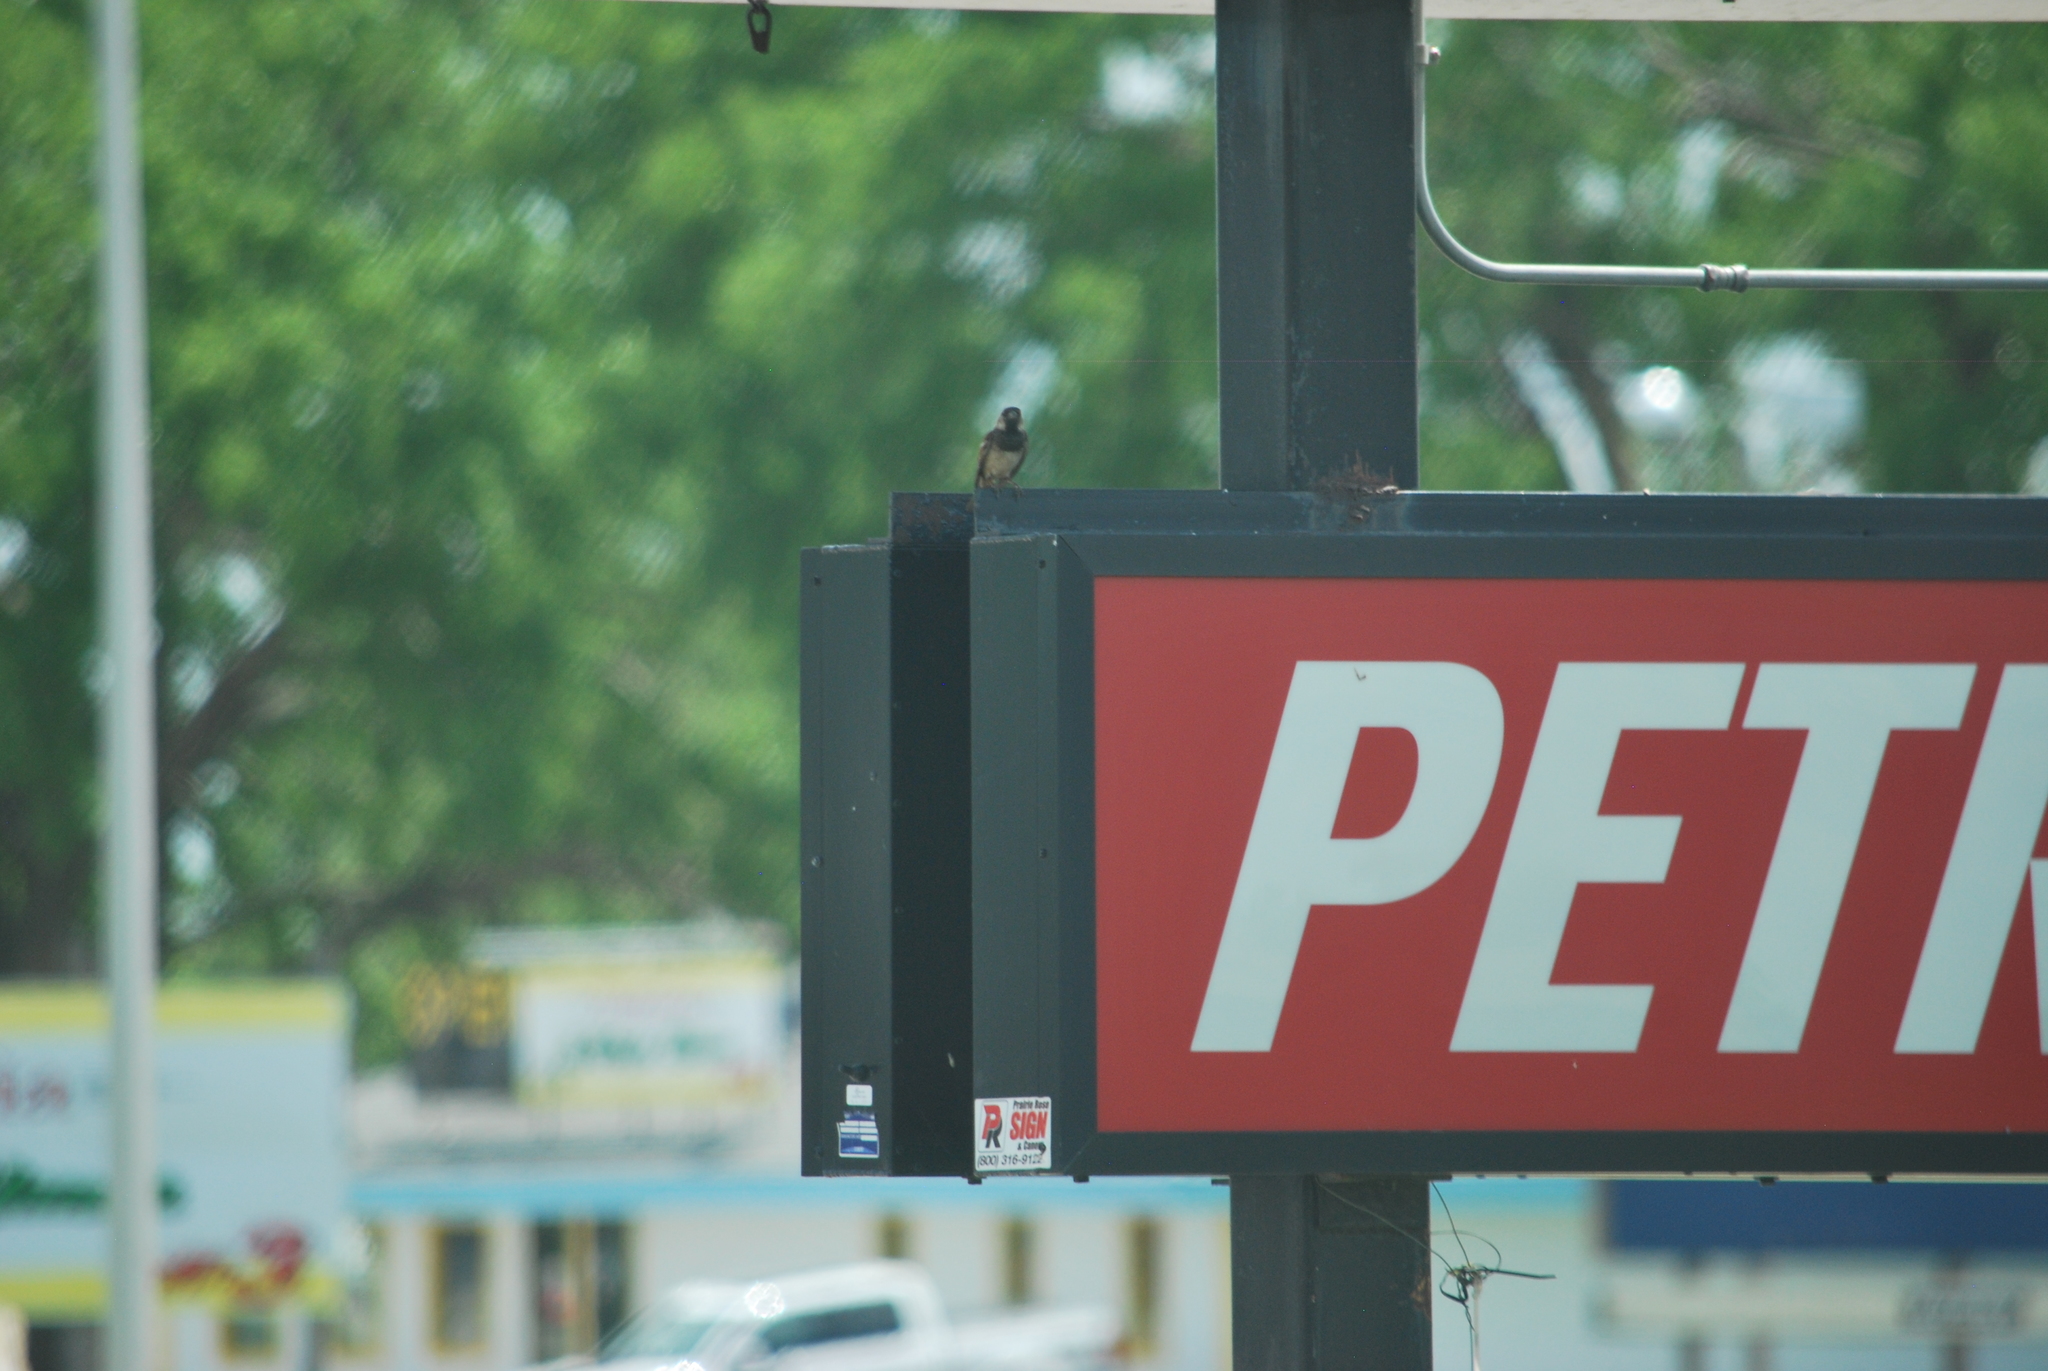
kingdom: Animalia
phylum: Chordata
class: Aves
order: Passeriformes
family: Passeridae
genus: Passer
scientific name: Passer domesticus
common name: House sparrow
